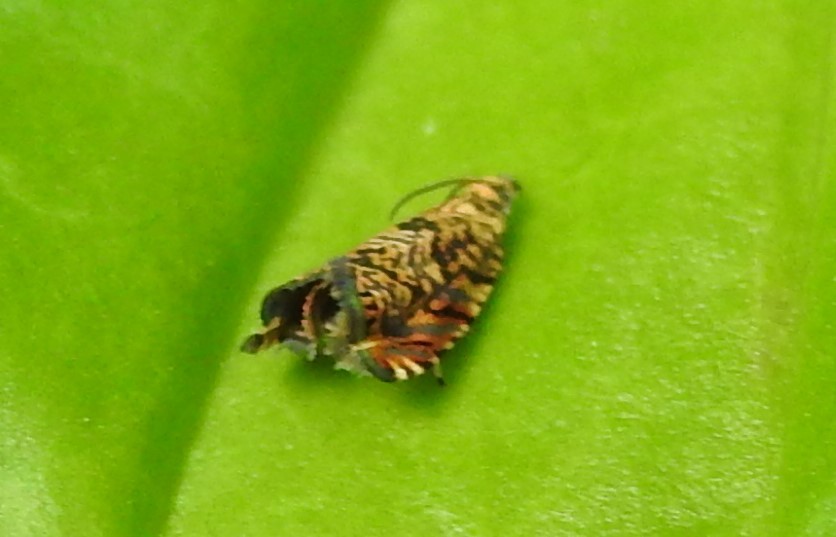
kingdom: Animalia
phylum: Arthropoda
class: Insecta
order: Lepidoptera
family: Tortricidae
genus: Dichrorampha
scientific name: Dichrorampha leopardana
